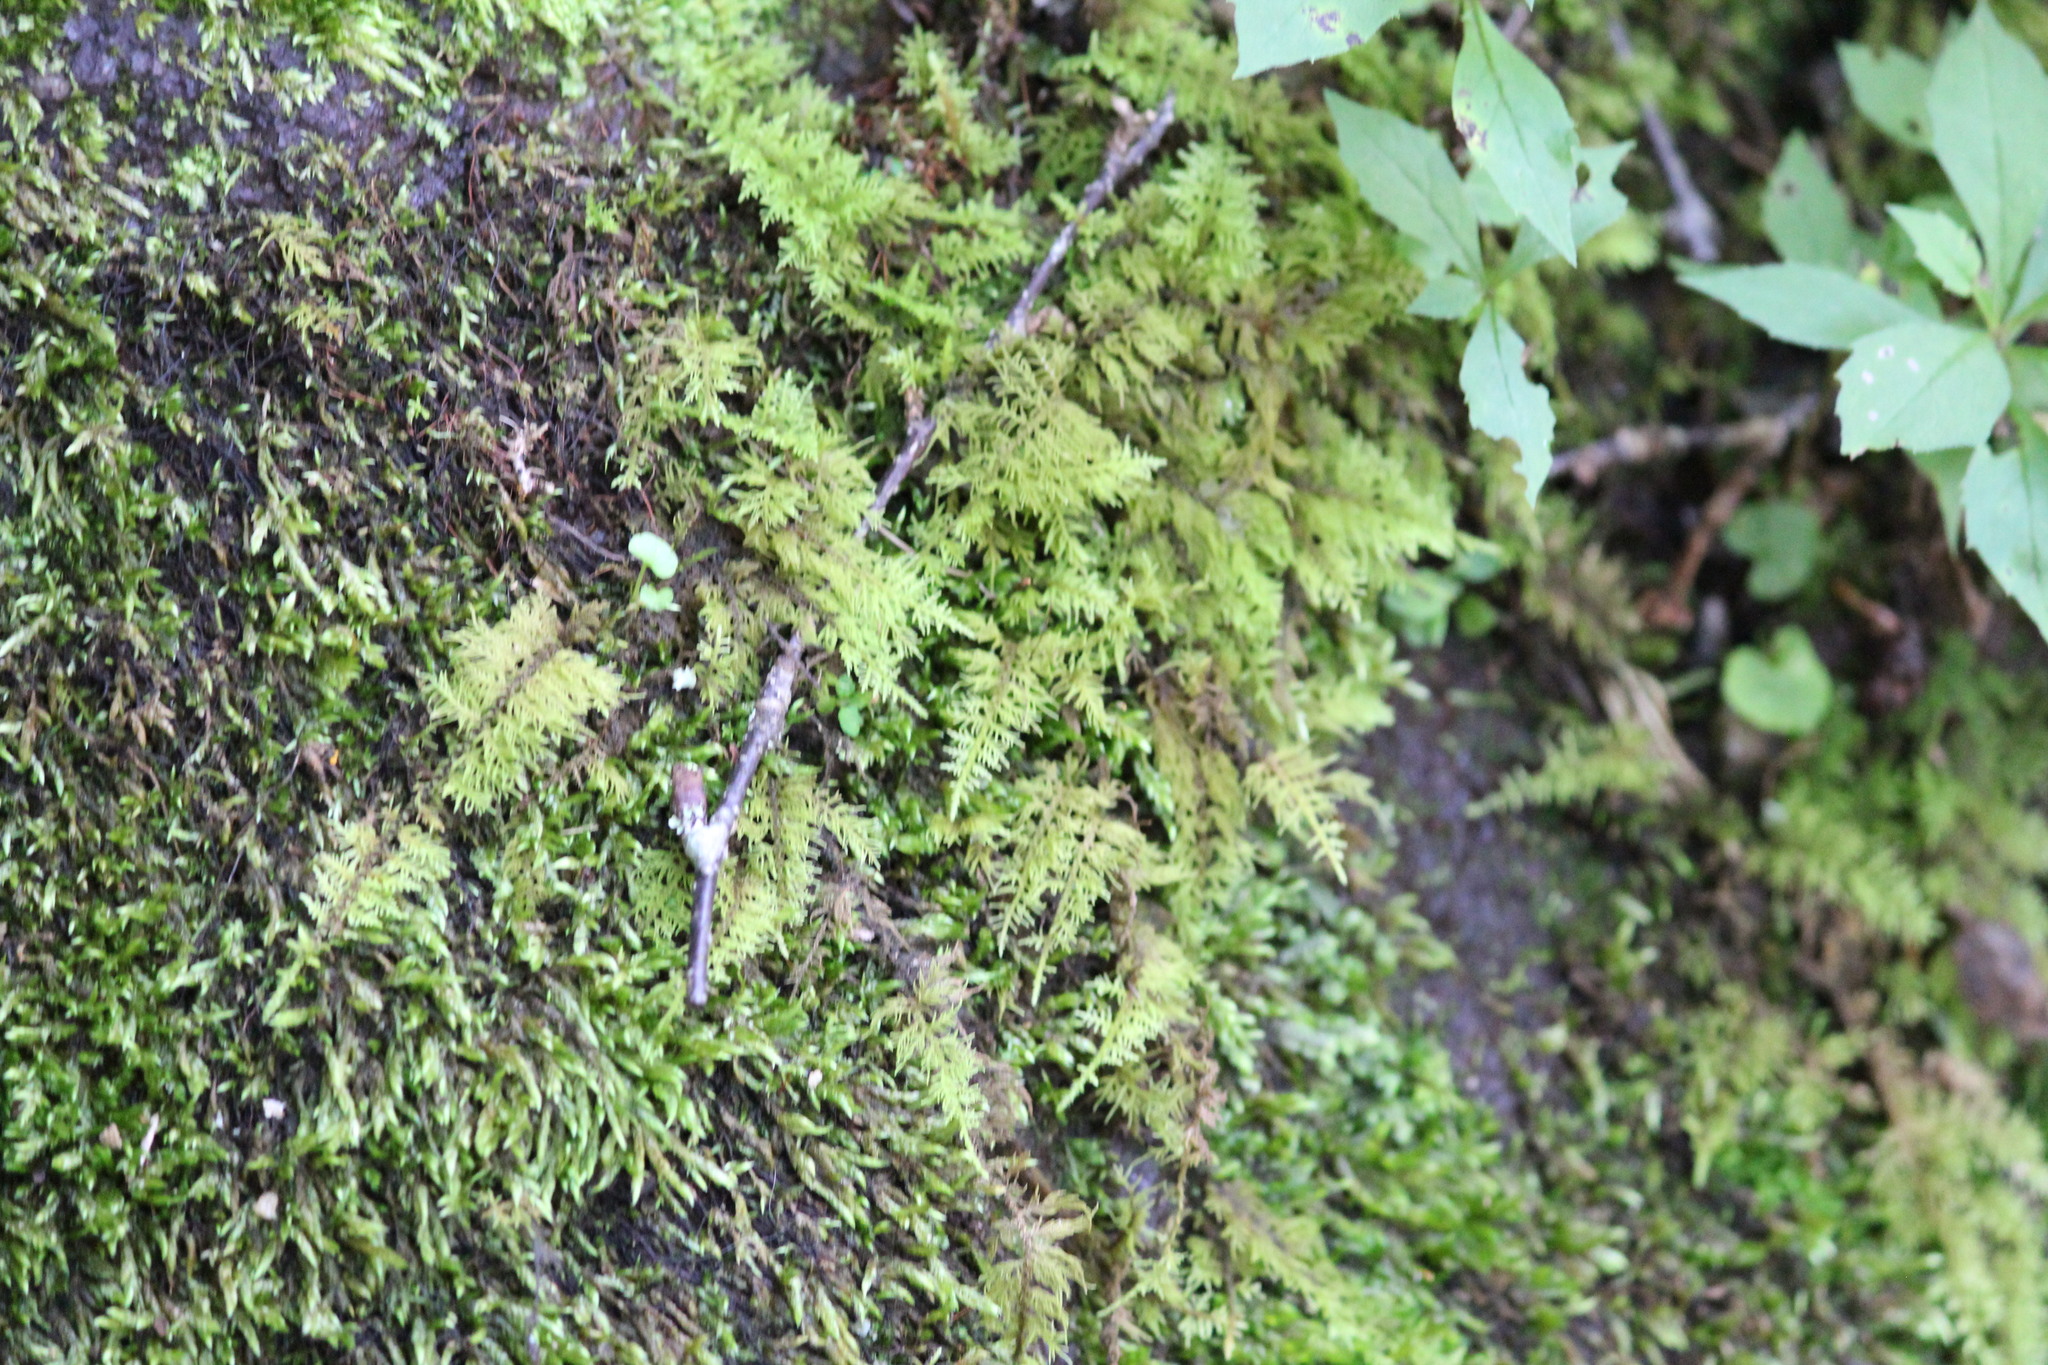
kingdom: Plantae
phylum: Bryophyta
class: Bryopsida
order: Hypnales
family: Thuidiaceae
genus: Thuidium
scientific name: Thuidium delicatulum
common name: Delicate fern moss
